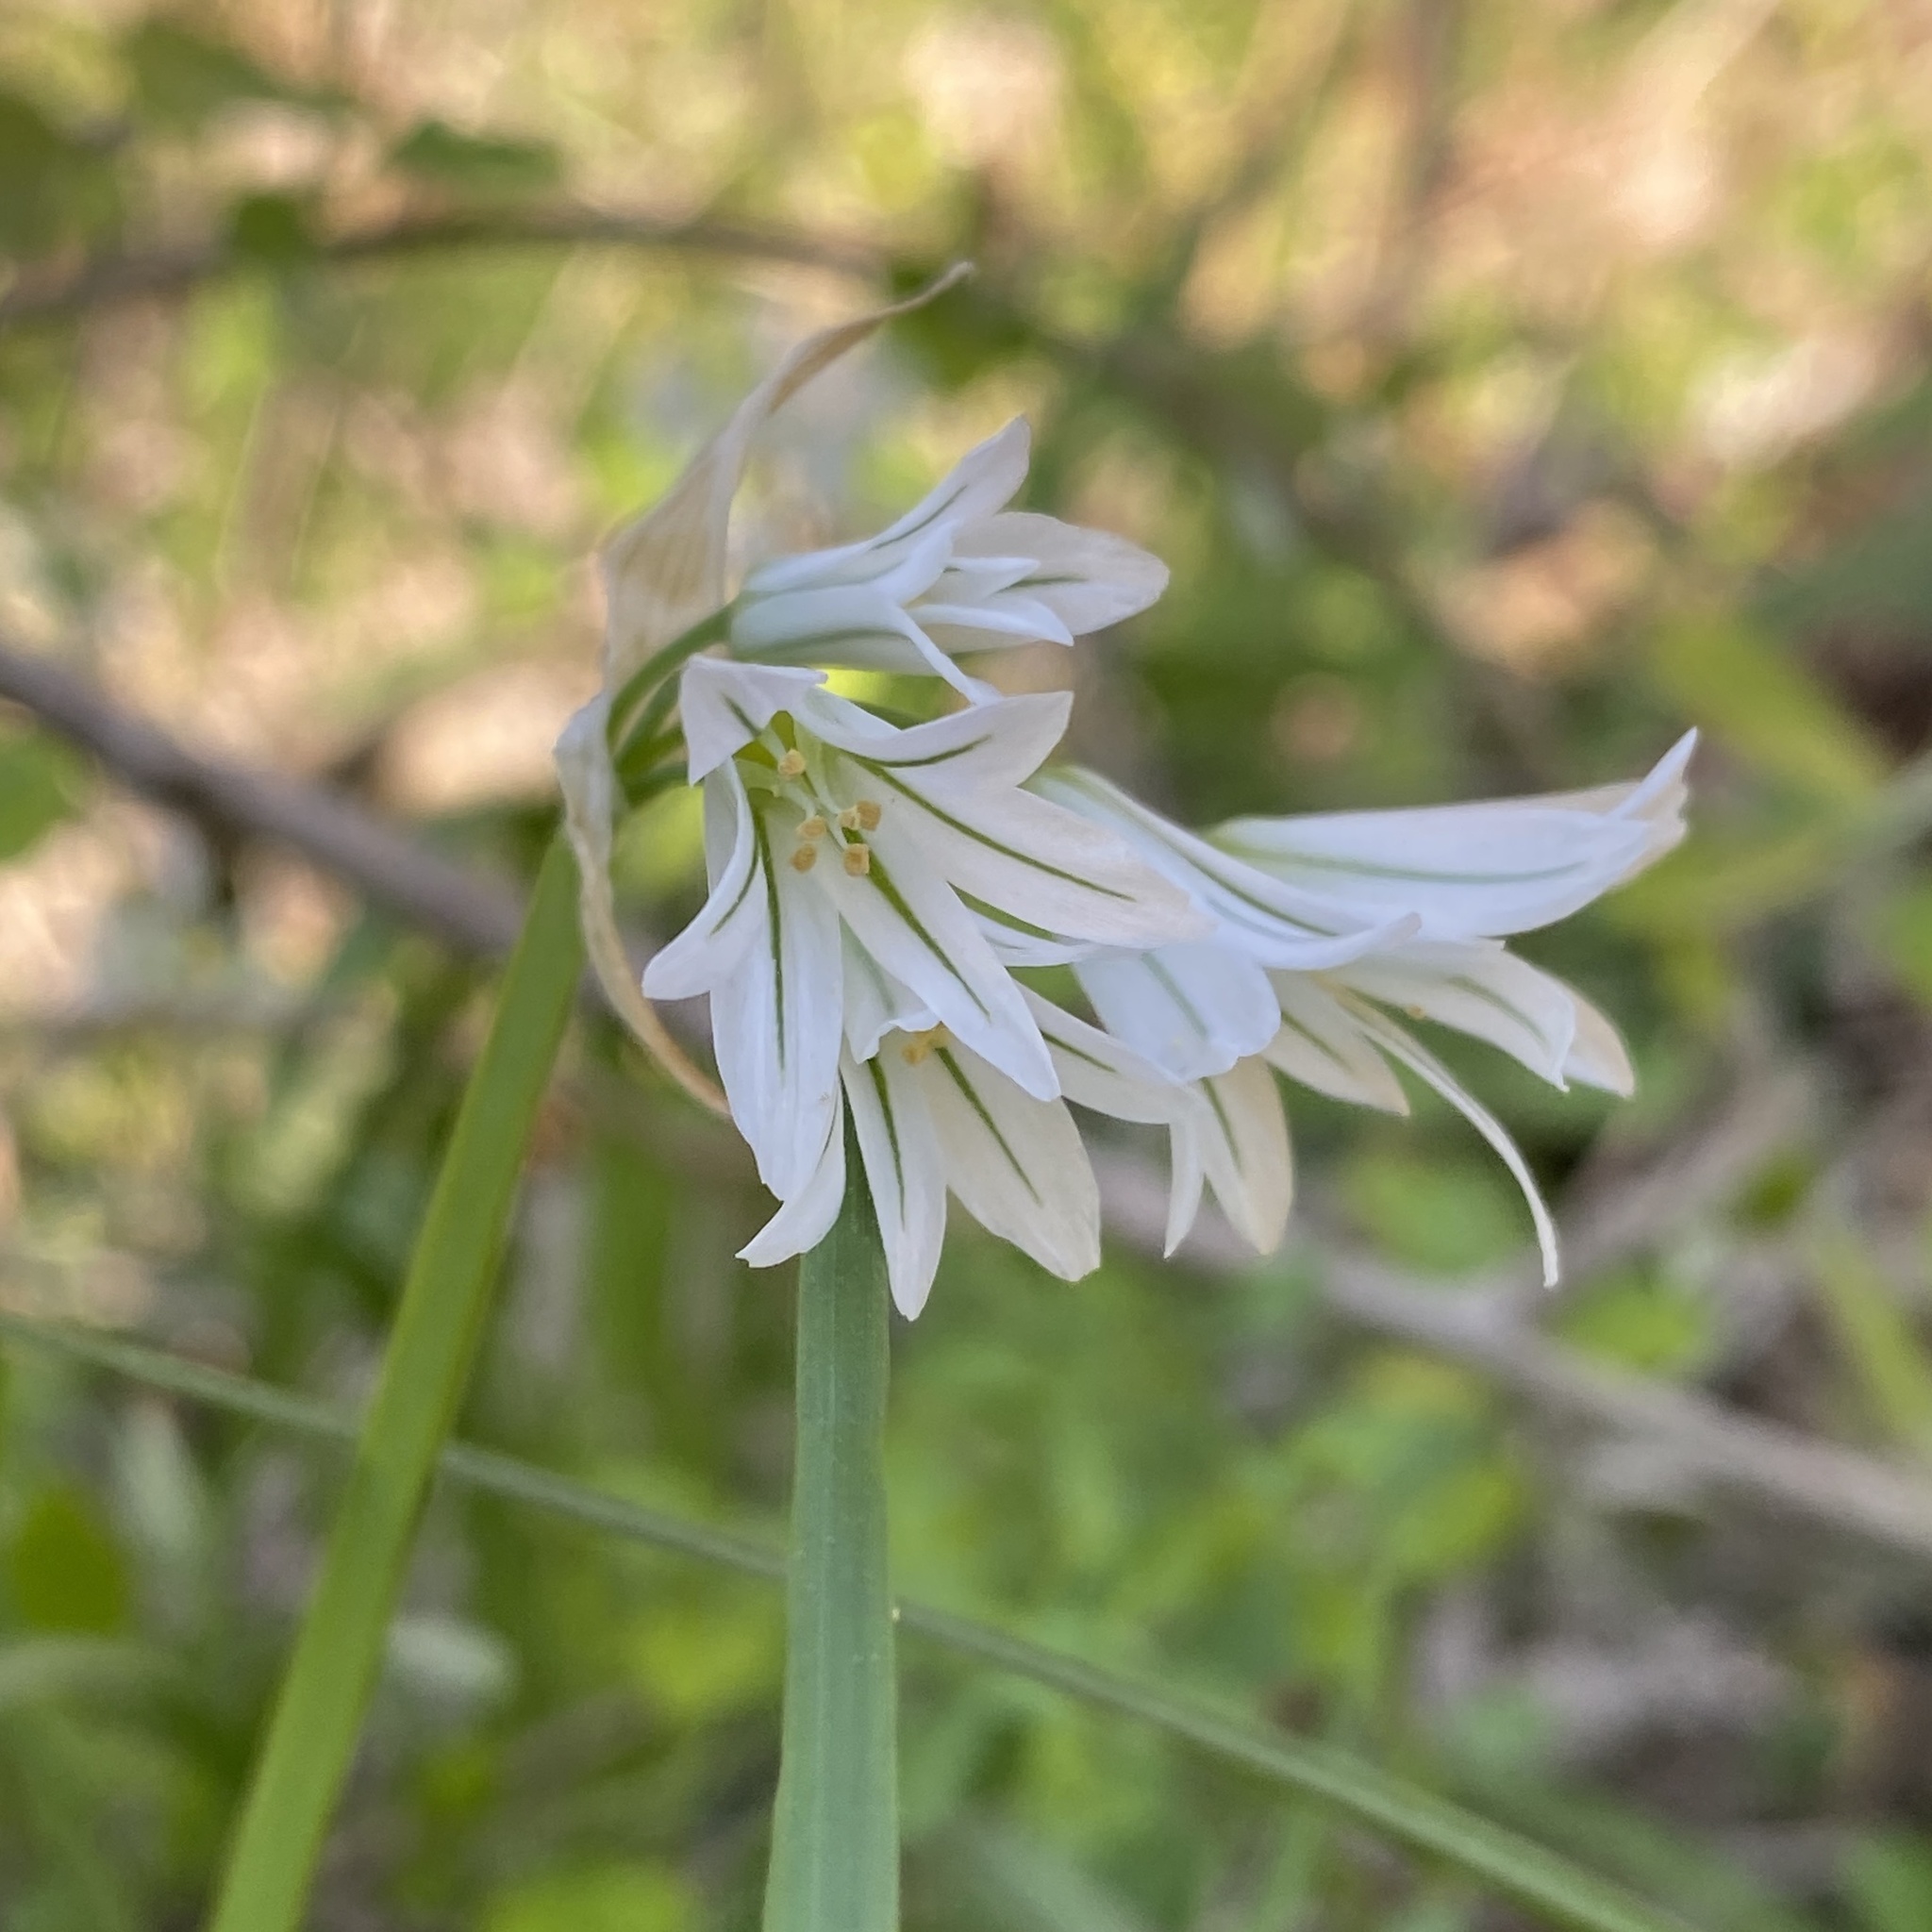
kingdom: Plantae
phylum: Tracheophyta
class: Liliopsida
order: Asparagales
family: Amaryllidaceae
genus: Allium
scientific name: Allium triquetrum
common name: Three-cornered garlic
